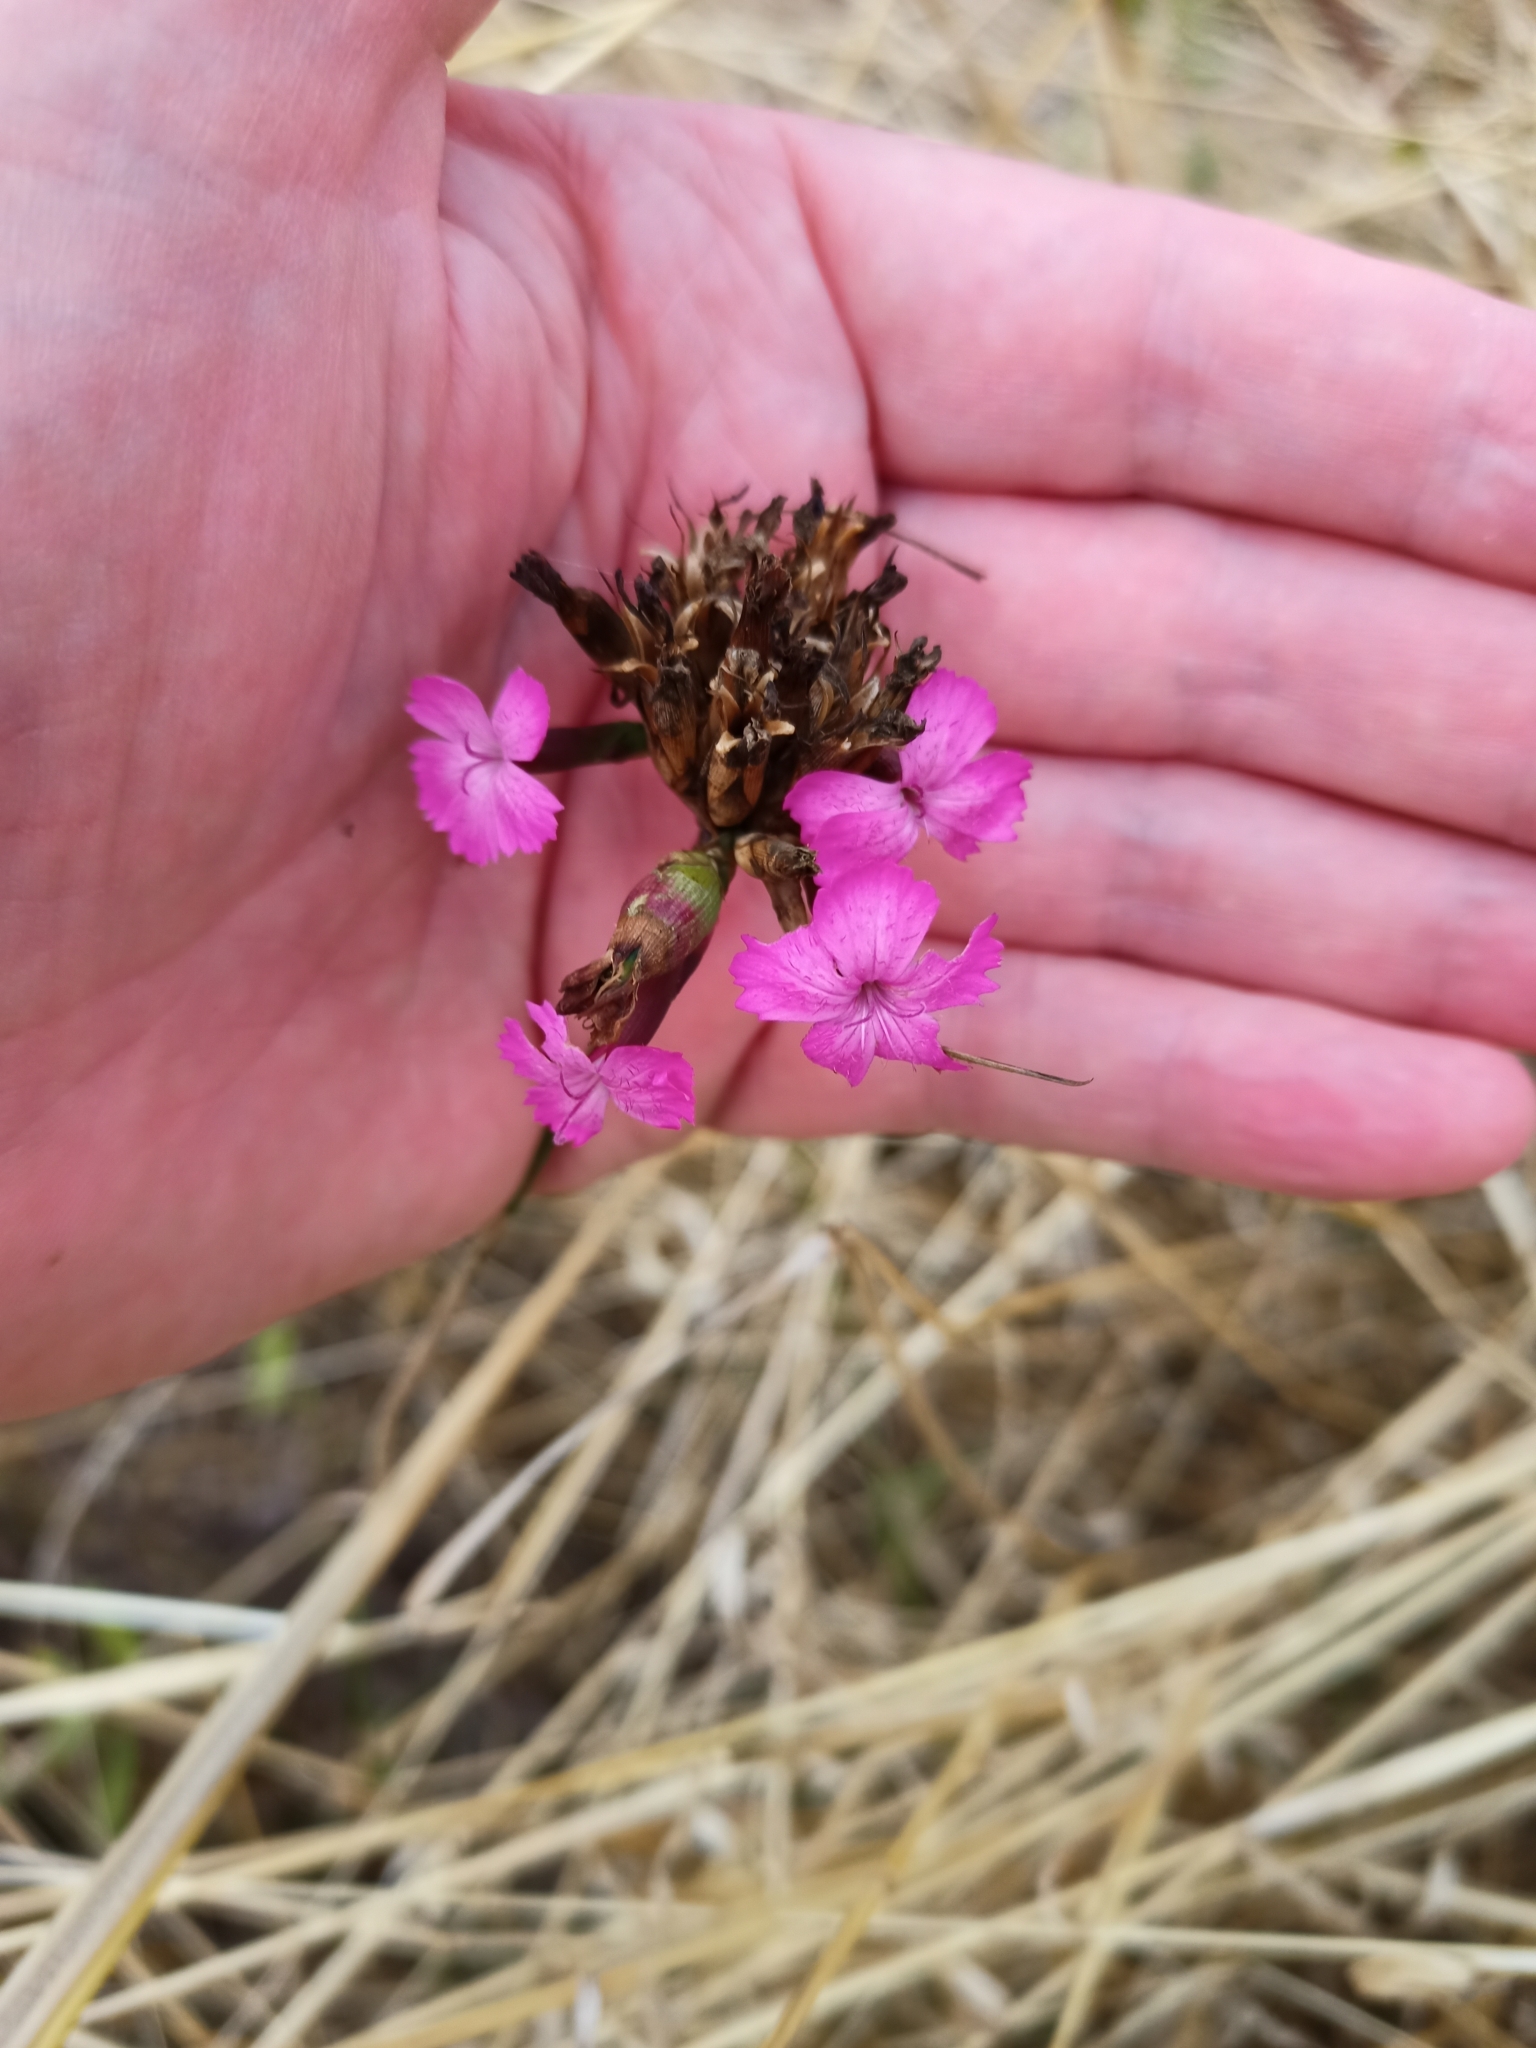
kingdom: Plantae
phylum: Tracheophyta
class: Magnoliopsida
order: Caryophyllales
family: Caryophyllaceae
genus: Dianthus
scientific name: Dianthus carthusianorum
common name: Carthusian pink
